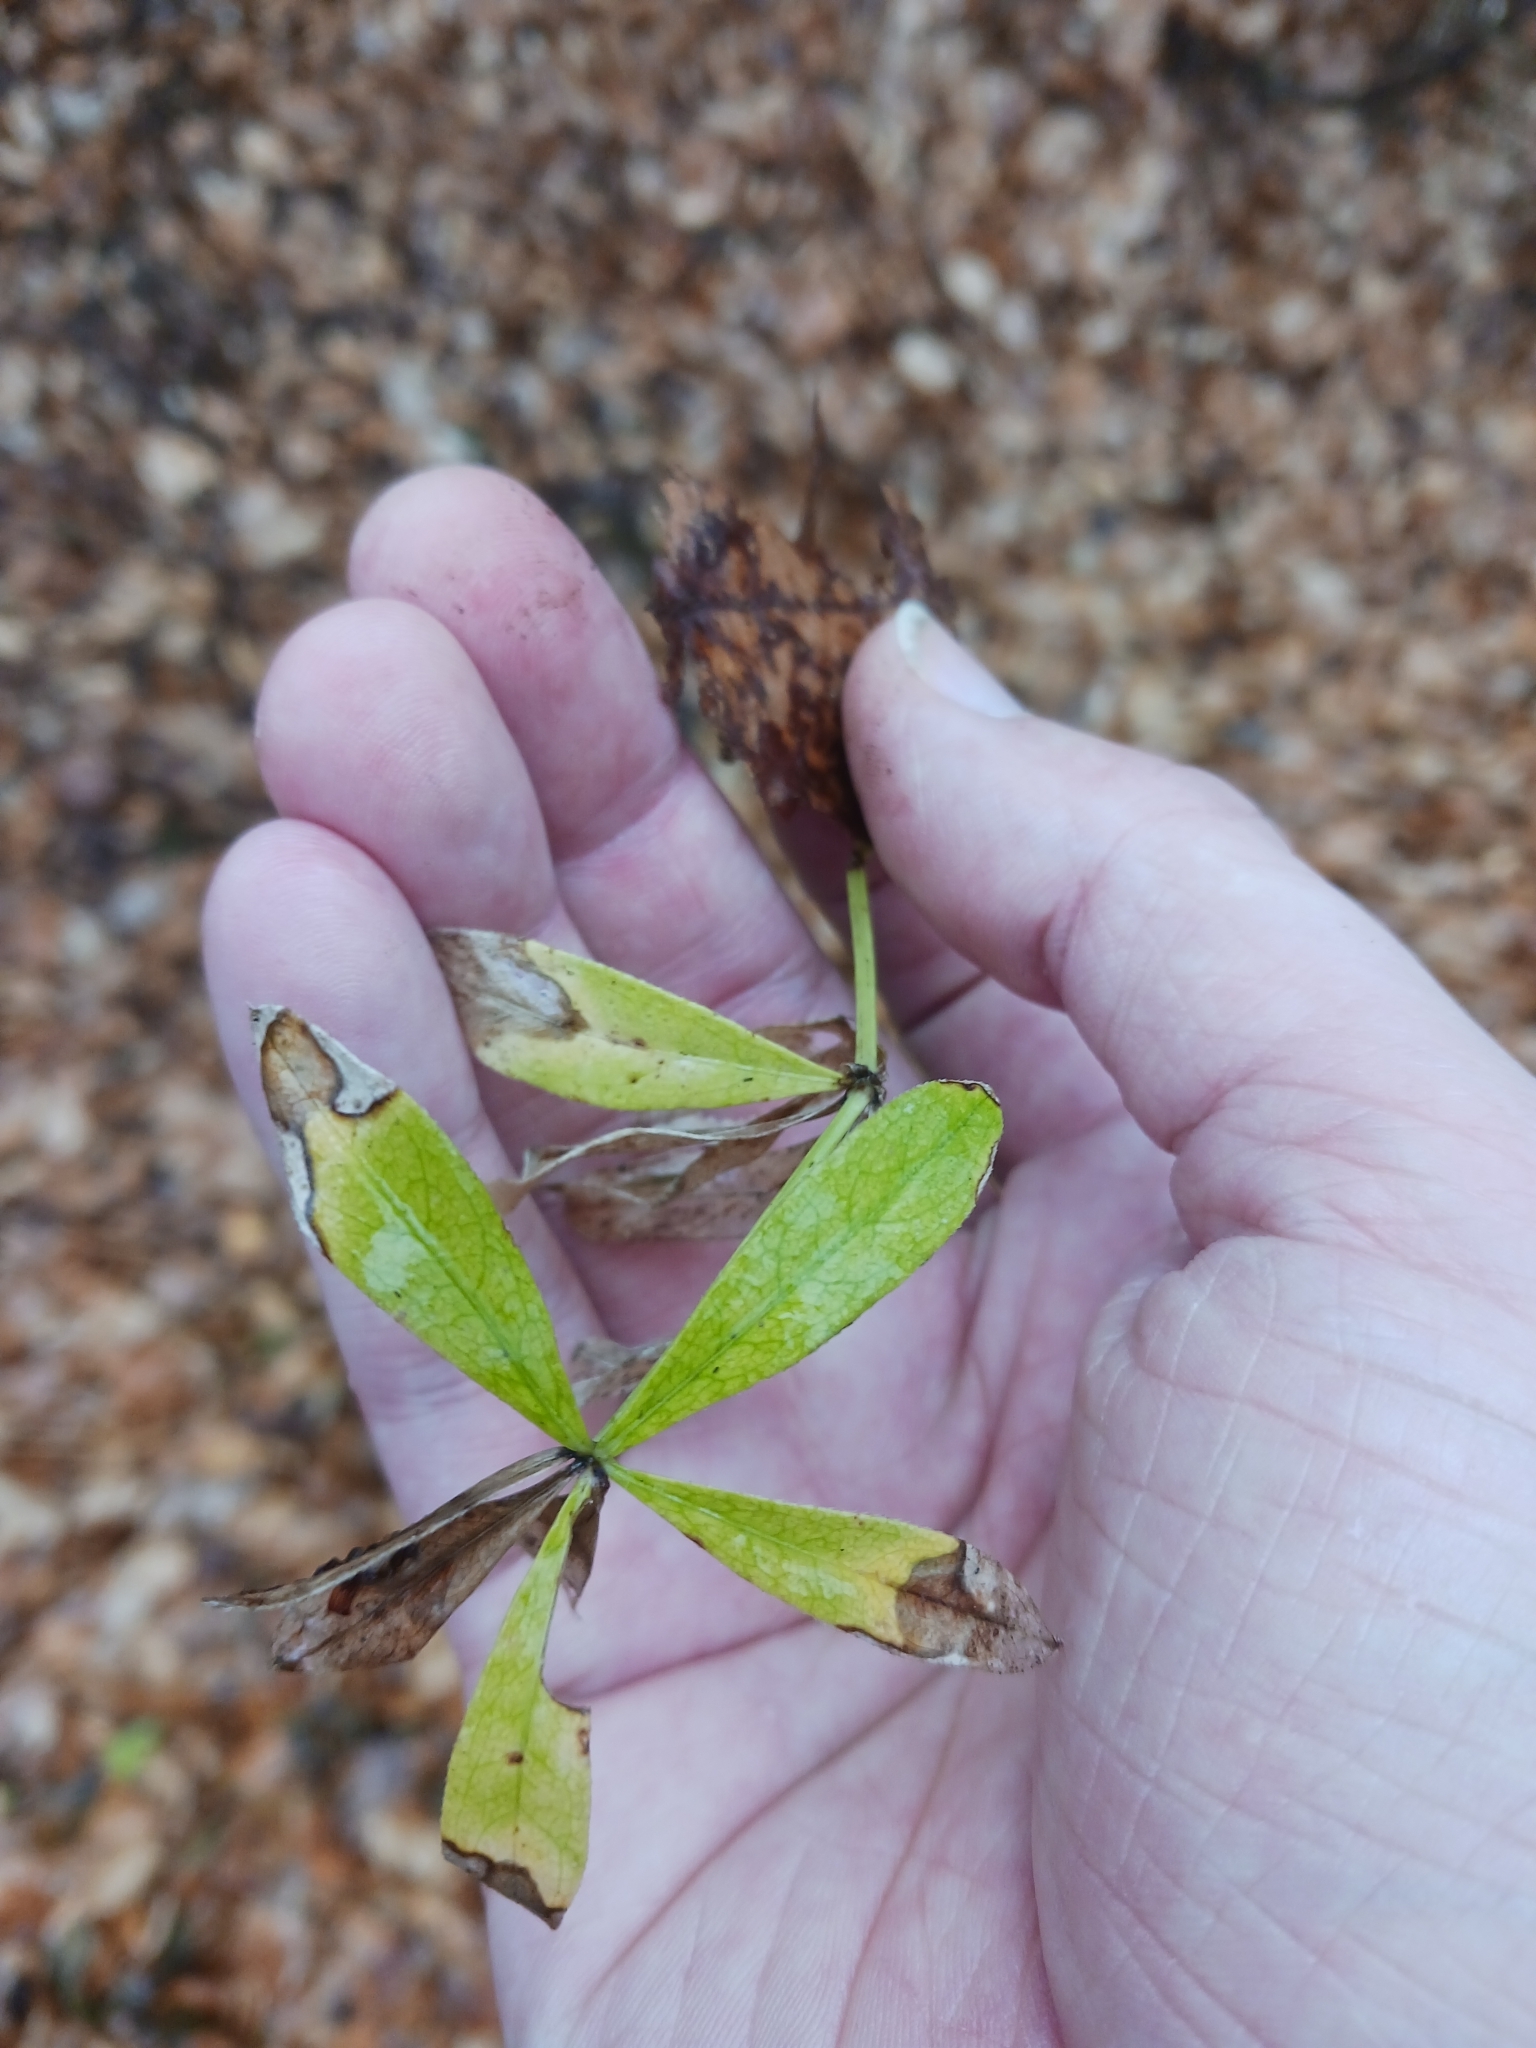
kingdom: Plantae
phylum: Tracheophyta
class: Magnoliopsida
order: Gentianales
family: Rubiaceae
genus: Galium
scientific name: Galium odoratum
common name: Sweet woodruff
